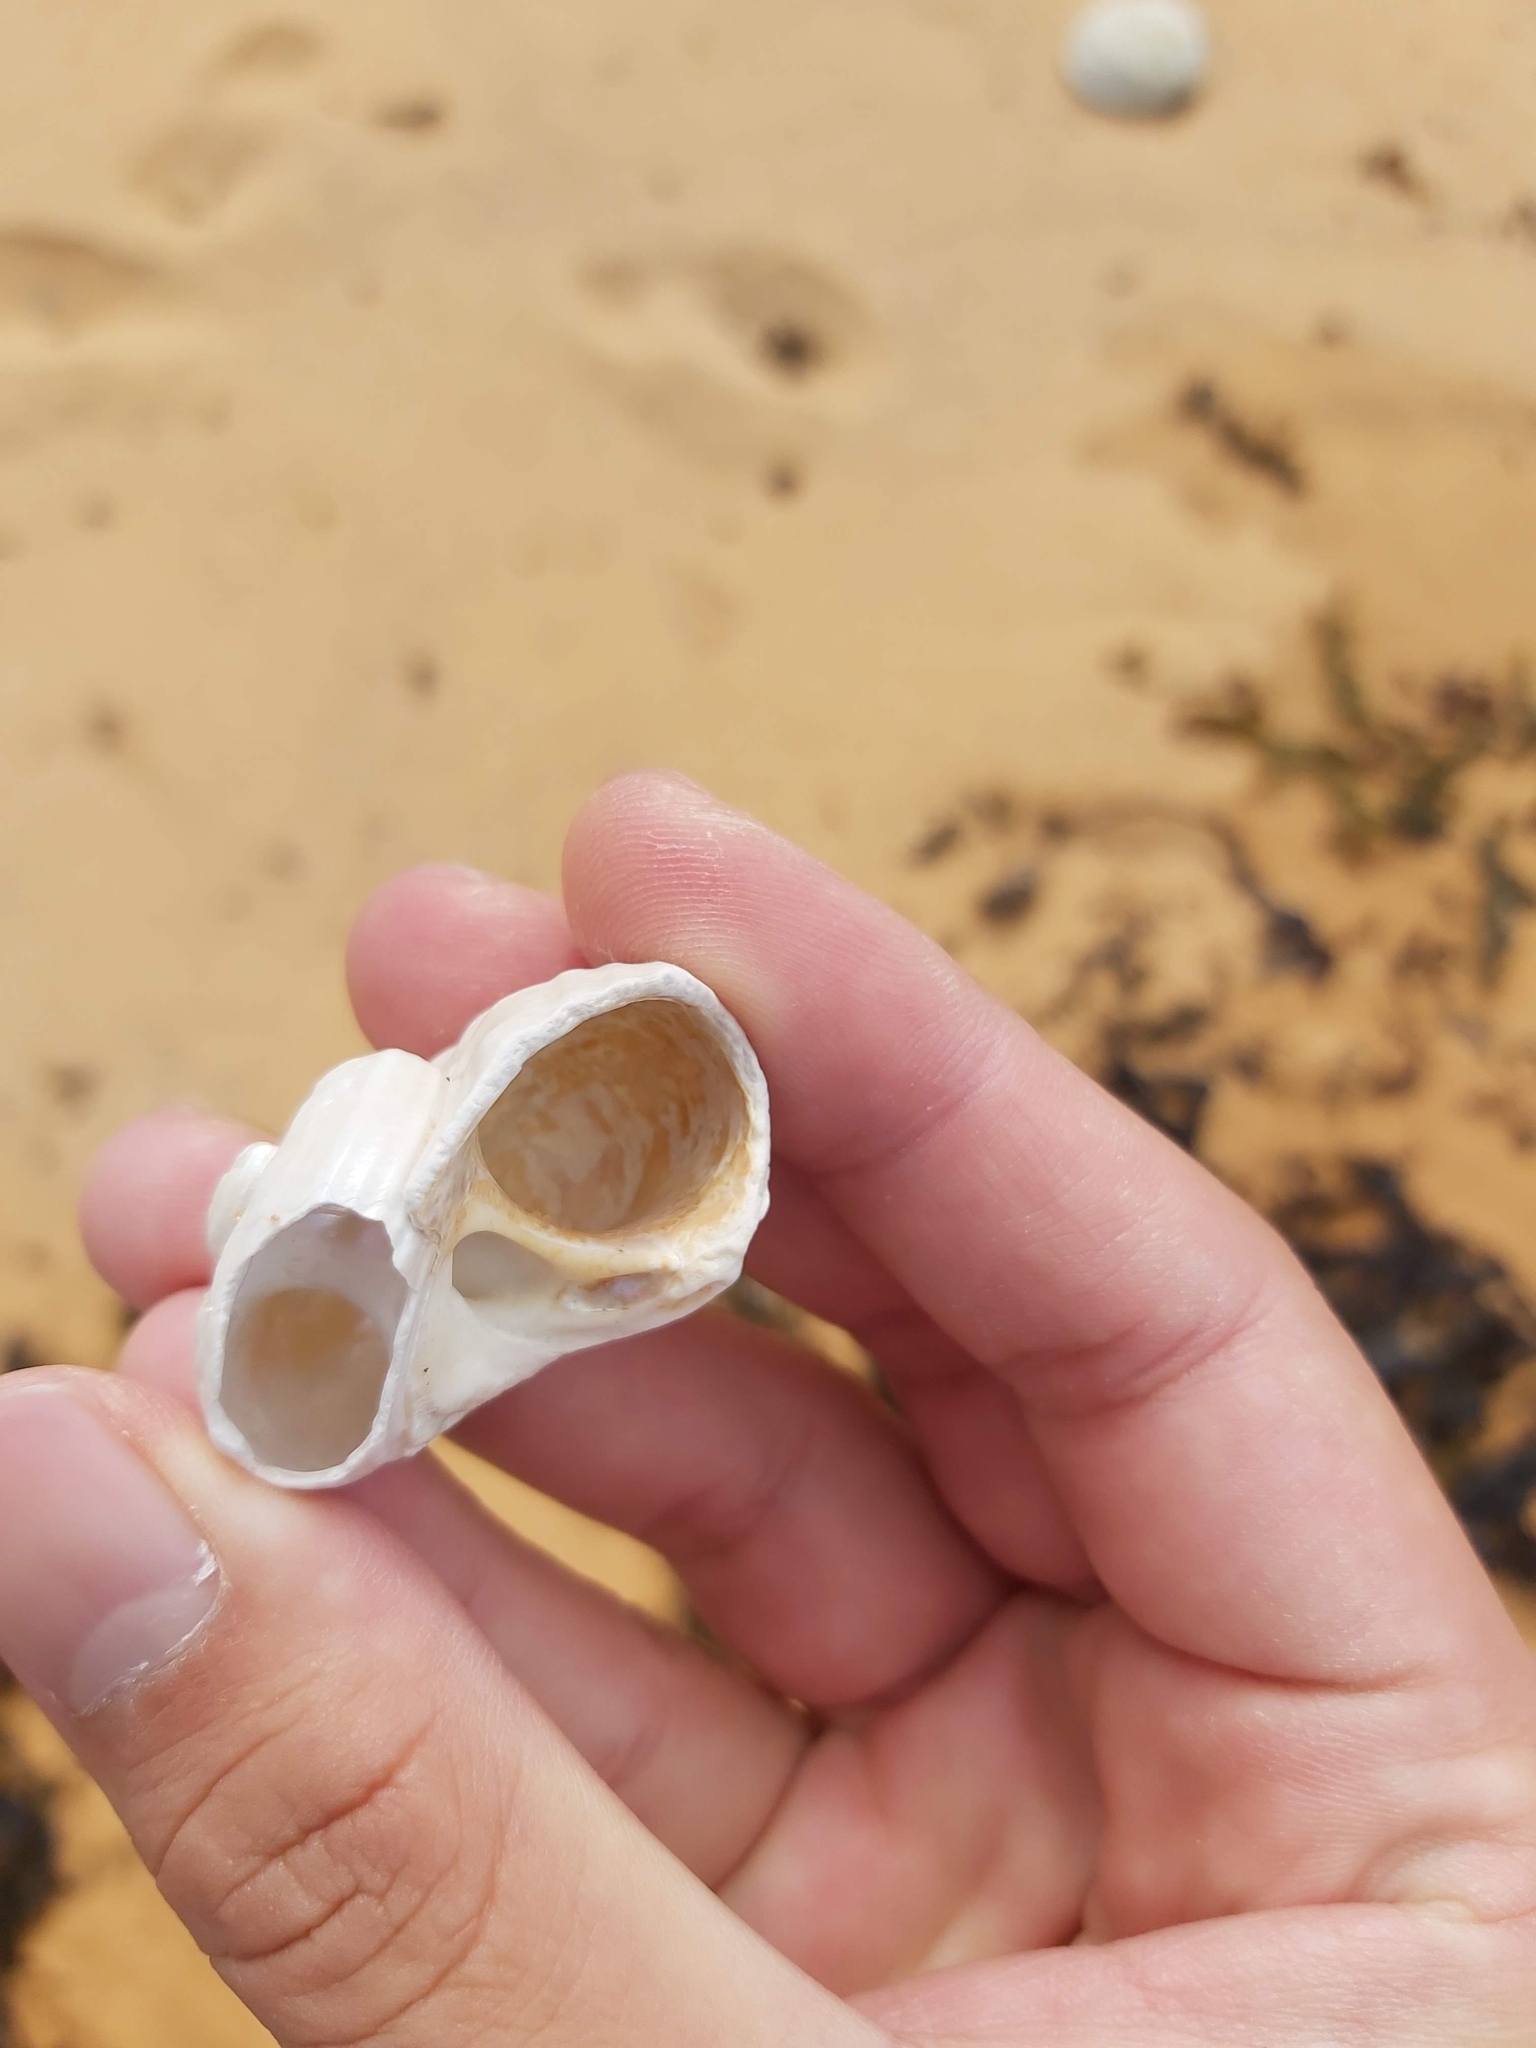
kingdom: Animalia
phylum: Mollusca
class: Gastropoda
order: Trochida
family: Turbinidae
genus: Lunella
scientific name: Lunella torquata
